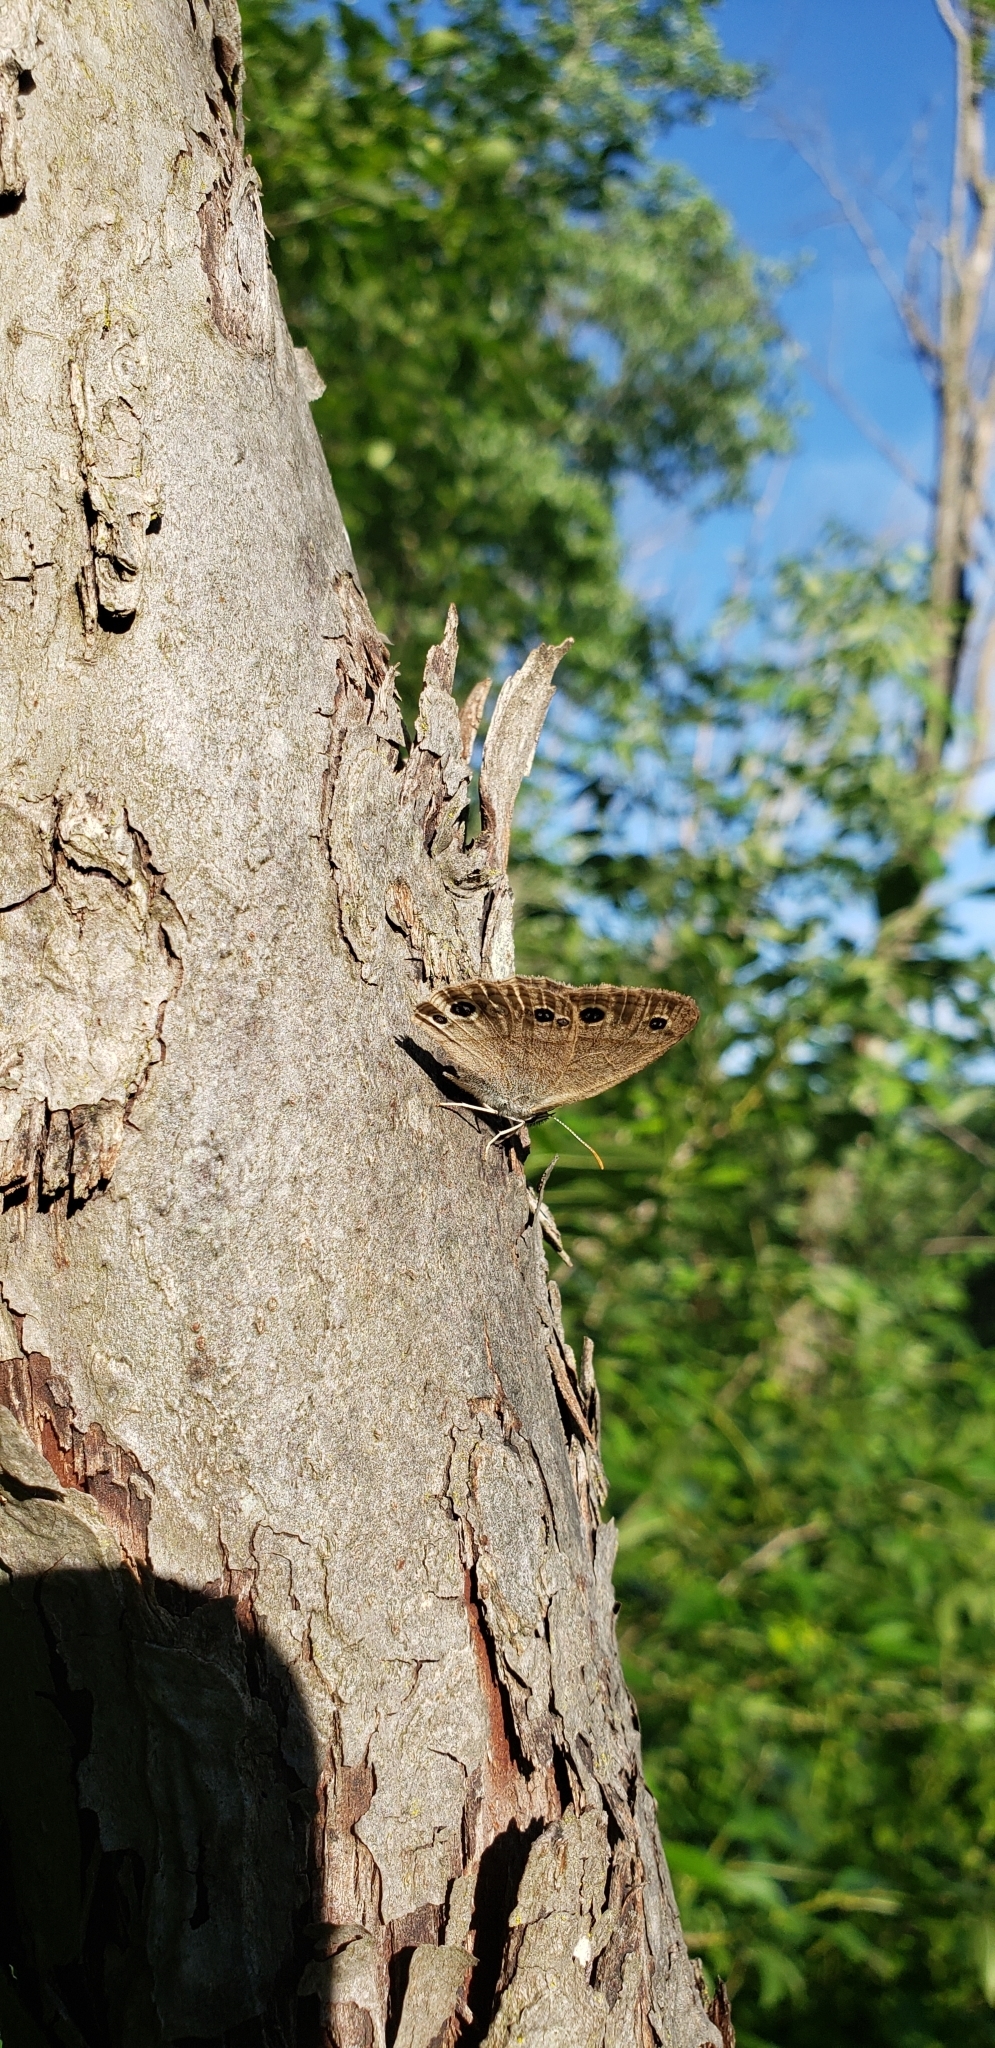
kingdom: Animalia
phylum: Arthropoda
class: Insecta
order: Lepidoptera
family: Nymphalidae
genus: Euptychia
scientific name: Euptychia cymela
